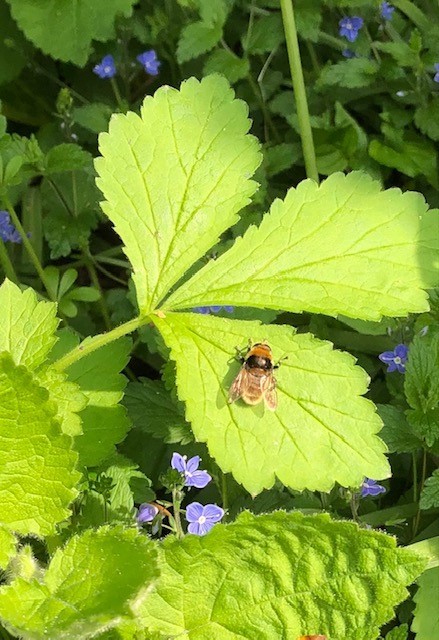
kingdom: Animalia
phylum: Arthropoda
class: Insecta
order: Diptera
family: Syrphidae
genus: Merodon
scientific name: Merodon equestris
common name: Greater bulb-fly
